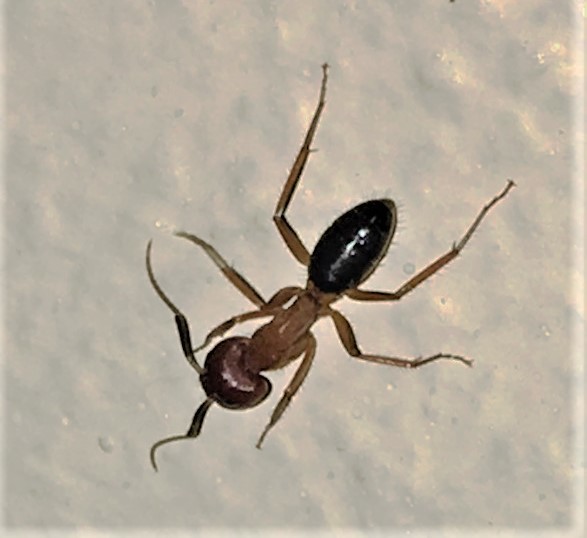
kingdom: Animalia
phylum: Arthropoda
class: Insecta
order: Hymenoptera
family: Formicidae
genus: Camponotus
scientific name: Camponotus floridanus
